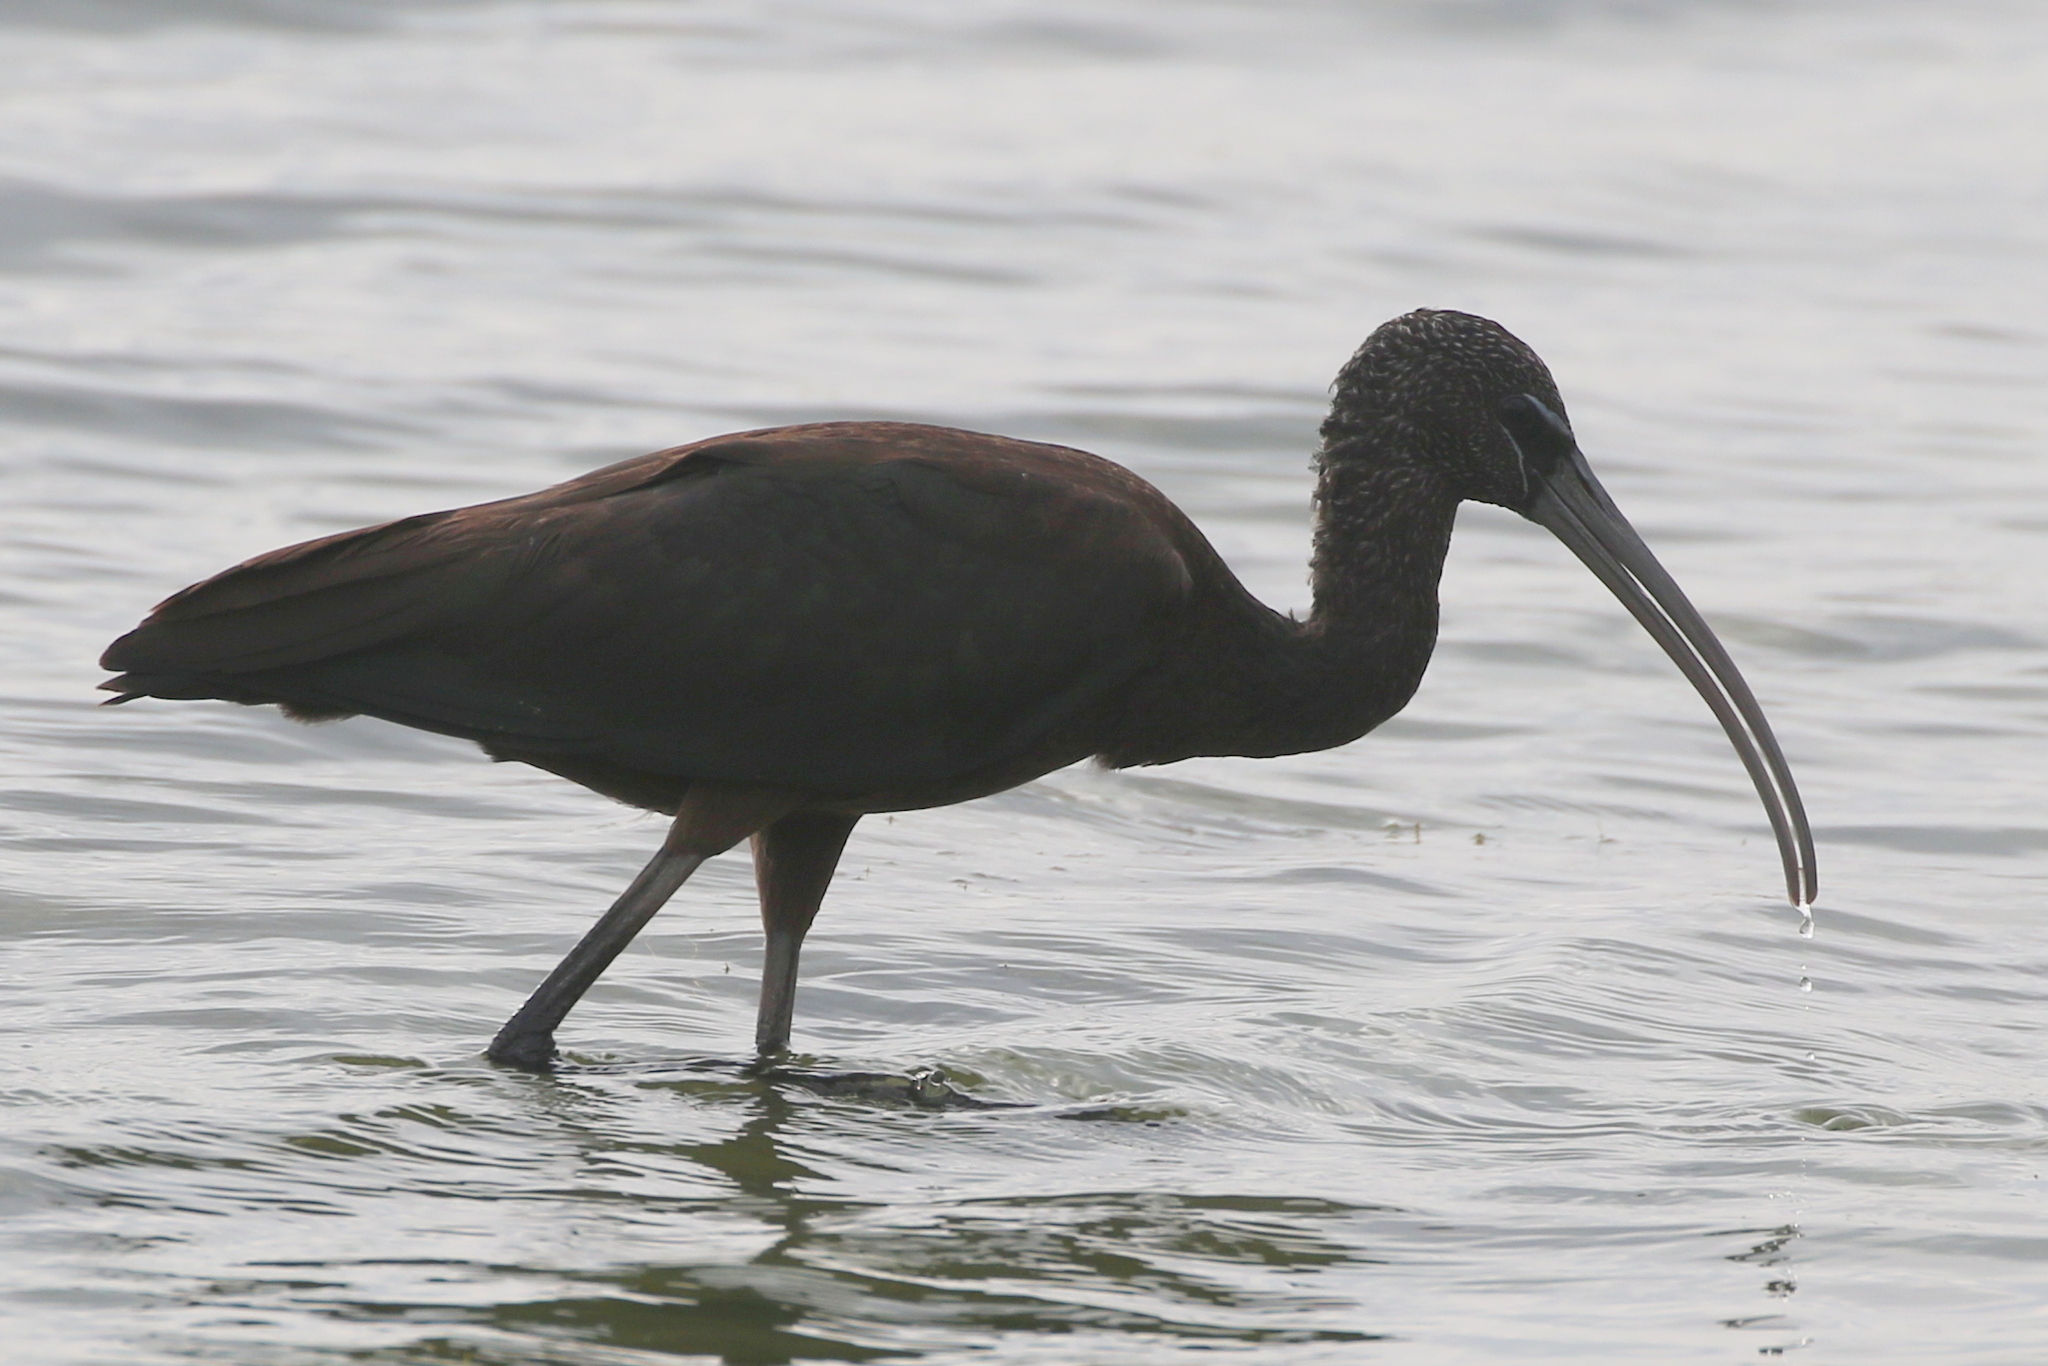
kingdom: Animalia
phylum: Chordata
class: Aves
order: Pelecaniformes
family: Threskiornithidae
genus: Plegadis
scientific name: Plegadis falcinellus
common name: Glossy ibis
